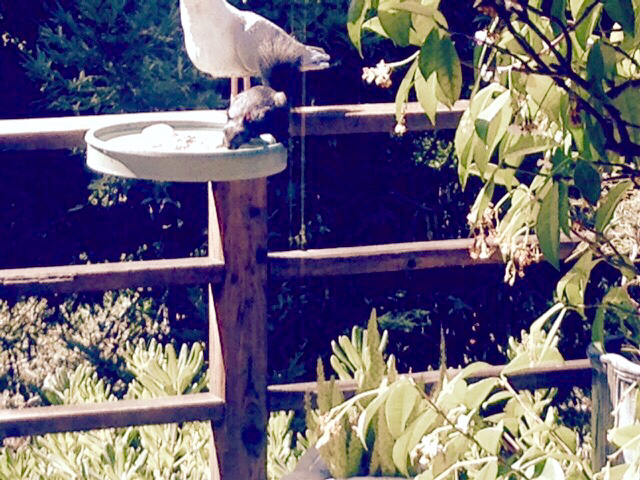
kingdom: Animalia
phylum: Chordata
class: Mammalia
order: Rodentia
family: Sciuridae
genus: Sciurus
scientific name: Sciurus carolinensis
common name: Eastern gray squirrel
